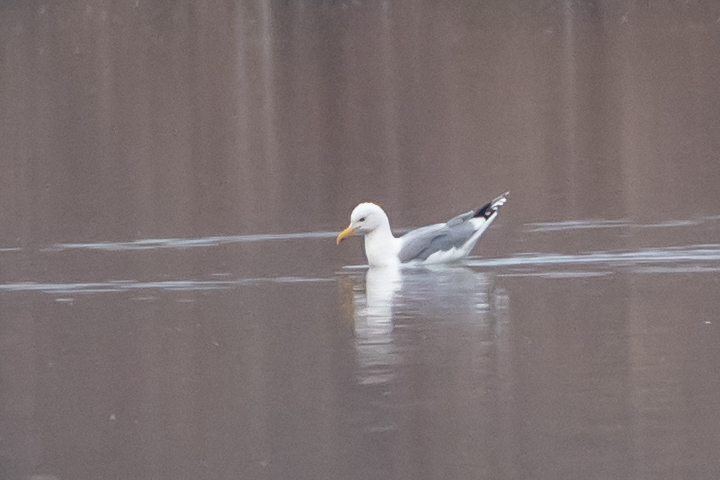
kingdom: Animalia
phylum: Chordata
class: Aves
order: Charadriiformes
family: Laridae
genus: Larus
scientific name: Larus cachinnans
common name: Caspian gull
